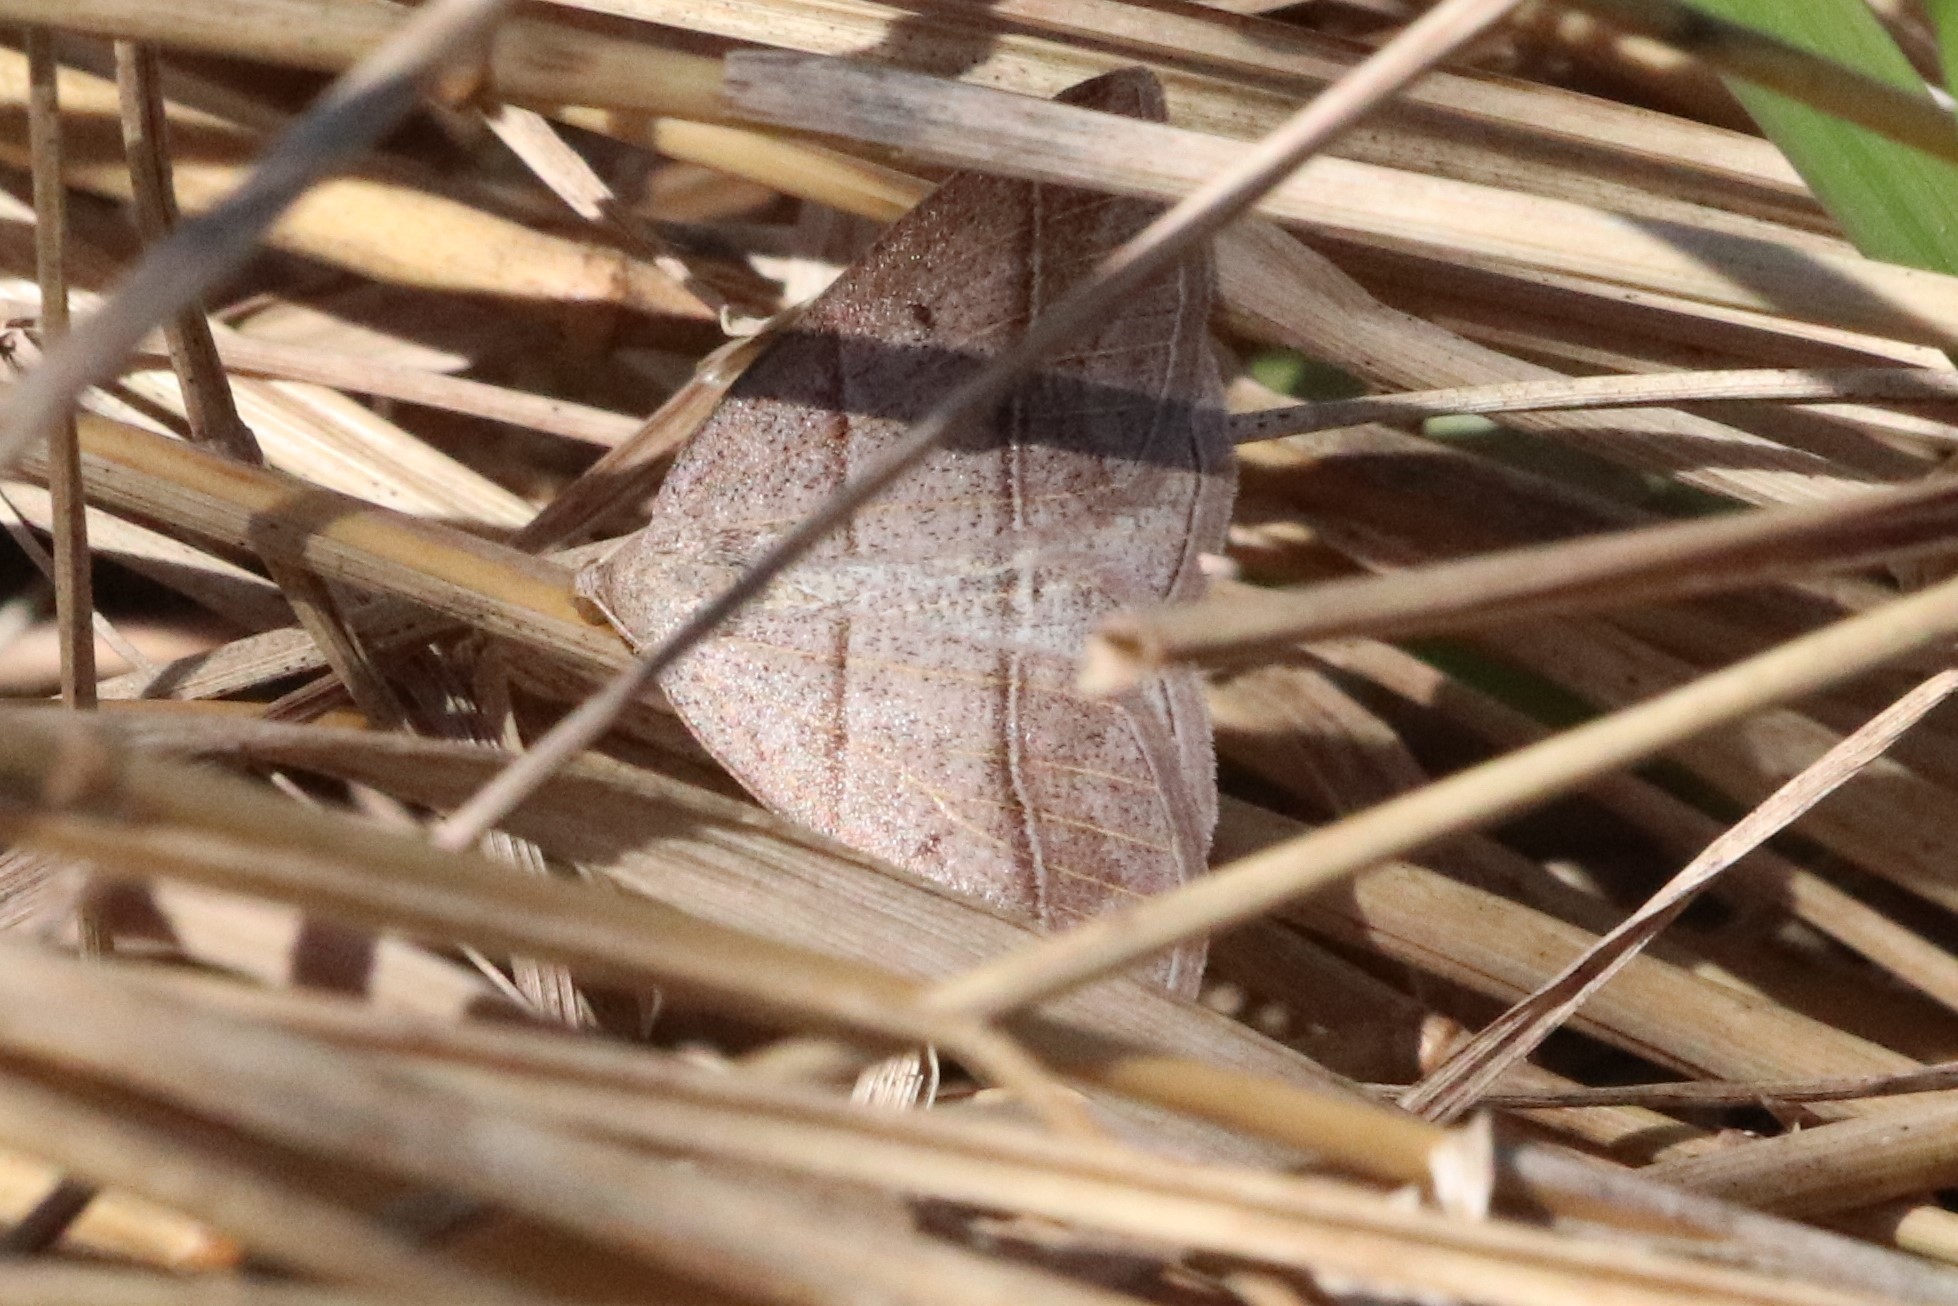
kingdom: Animalia
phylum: Arthropoda
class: Insecta
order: Lepidoptera
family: Pterophoridae
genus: Pterophorus
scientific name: Pterophorus Petrophora subaequaria
